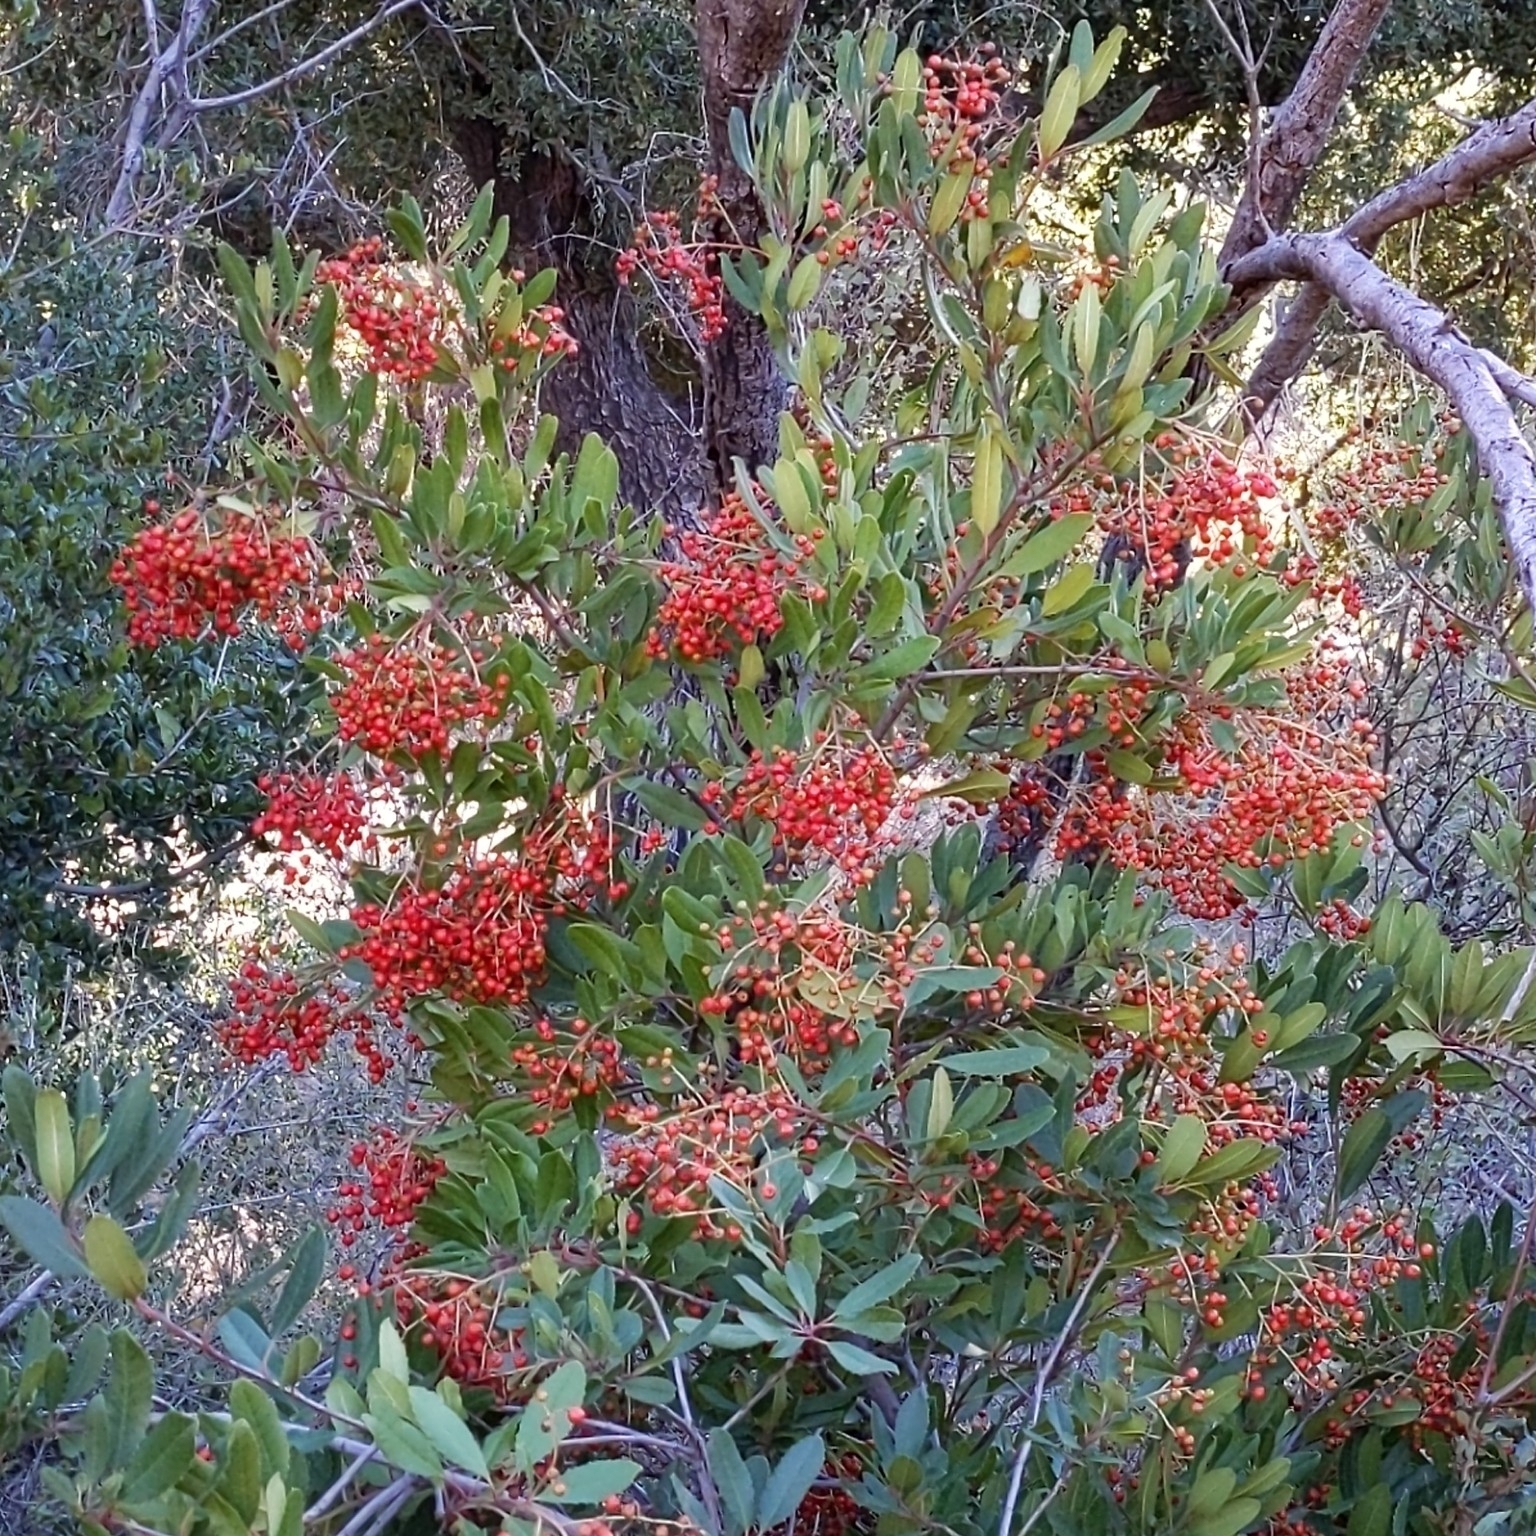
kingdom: Plantae
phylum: Tracheophyta
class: Magnoliopsida
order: Rosales
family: Rosaceae
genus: Heteromeles
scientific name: Heteromeles arbutifolia
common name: California-holly
